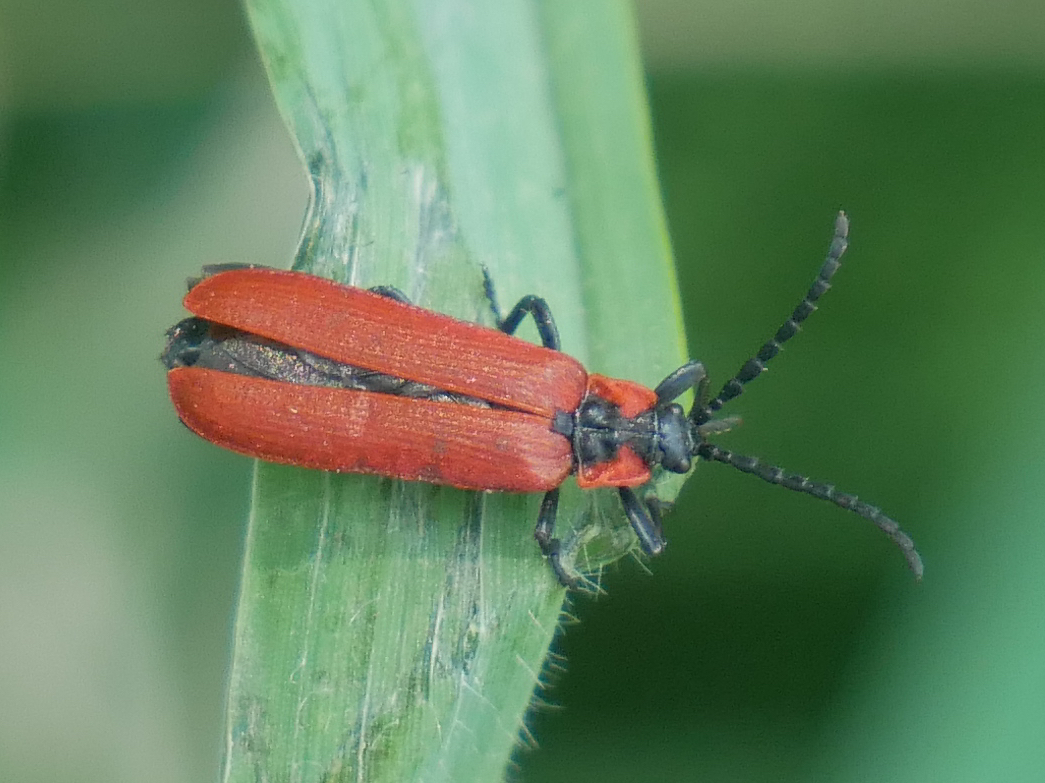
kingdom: Animalia
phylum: Arthropoda
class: Insecta
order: Coleoptera
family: Lycidae
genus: Lygistopterus
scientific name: Lygistopterus sanguineus
